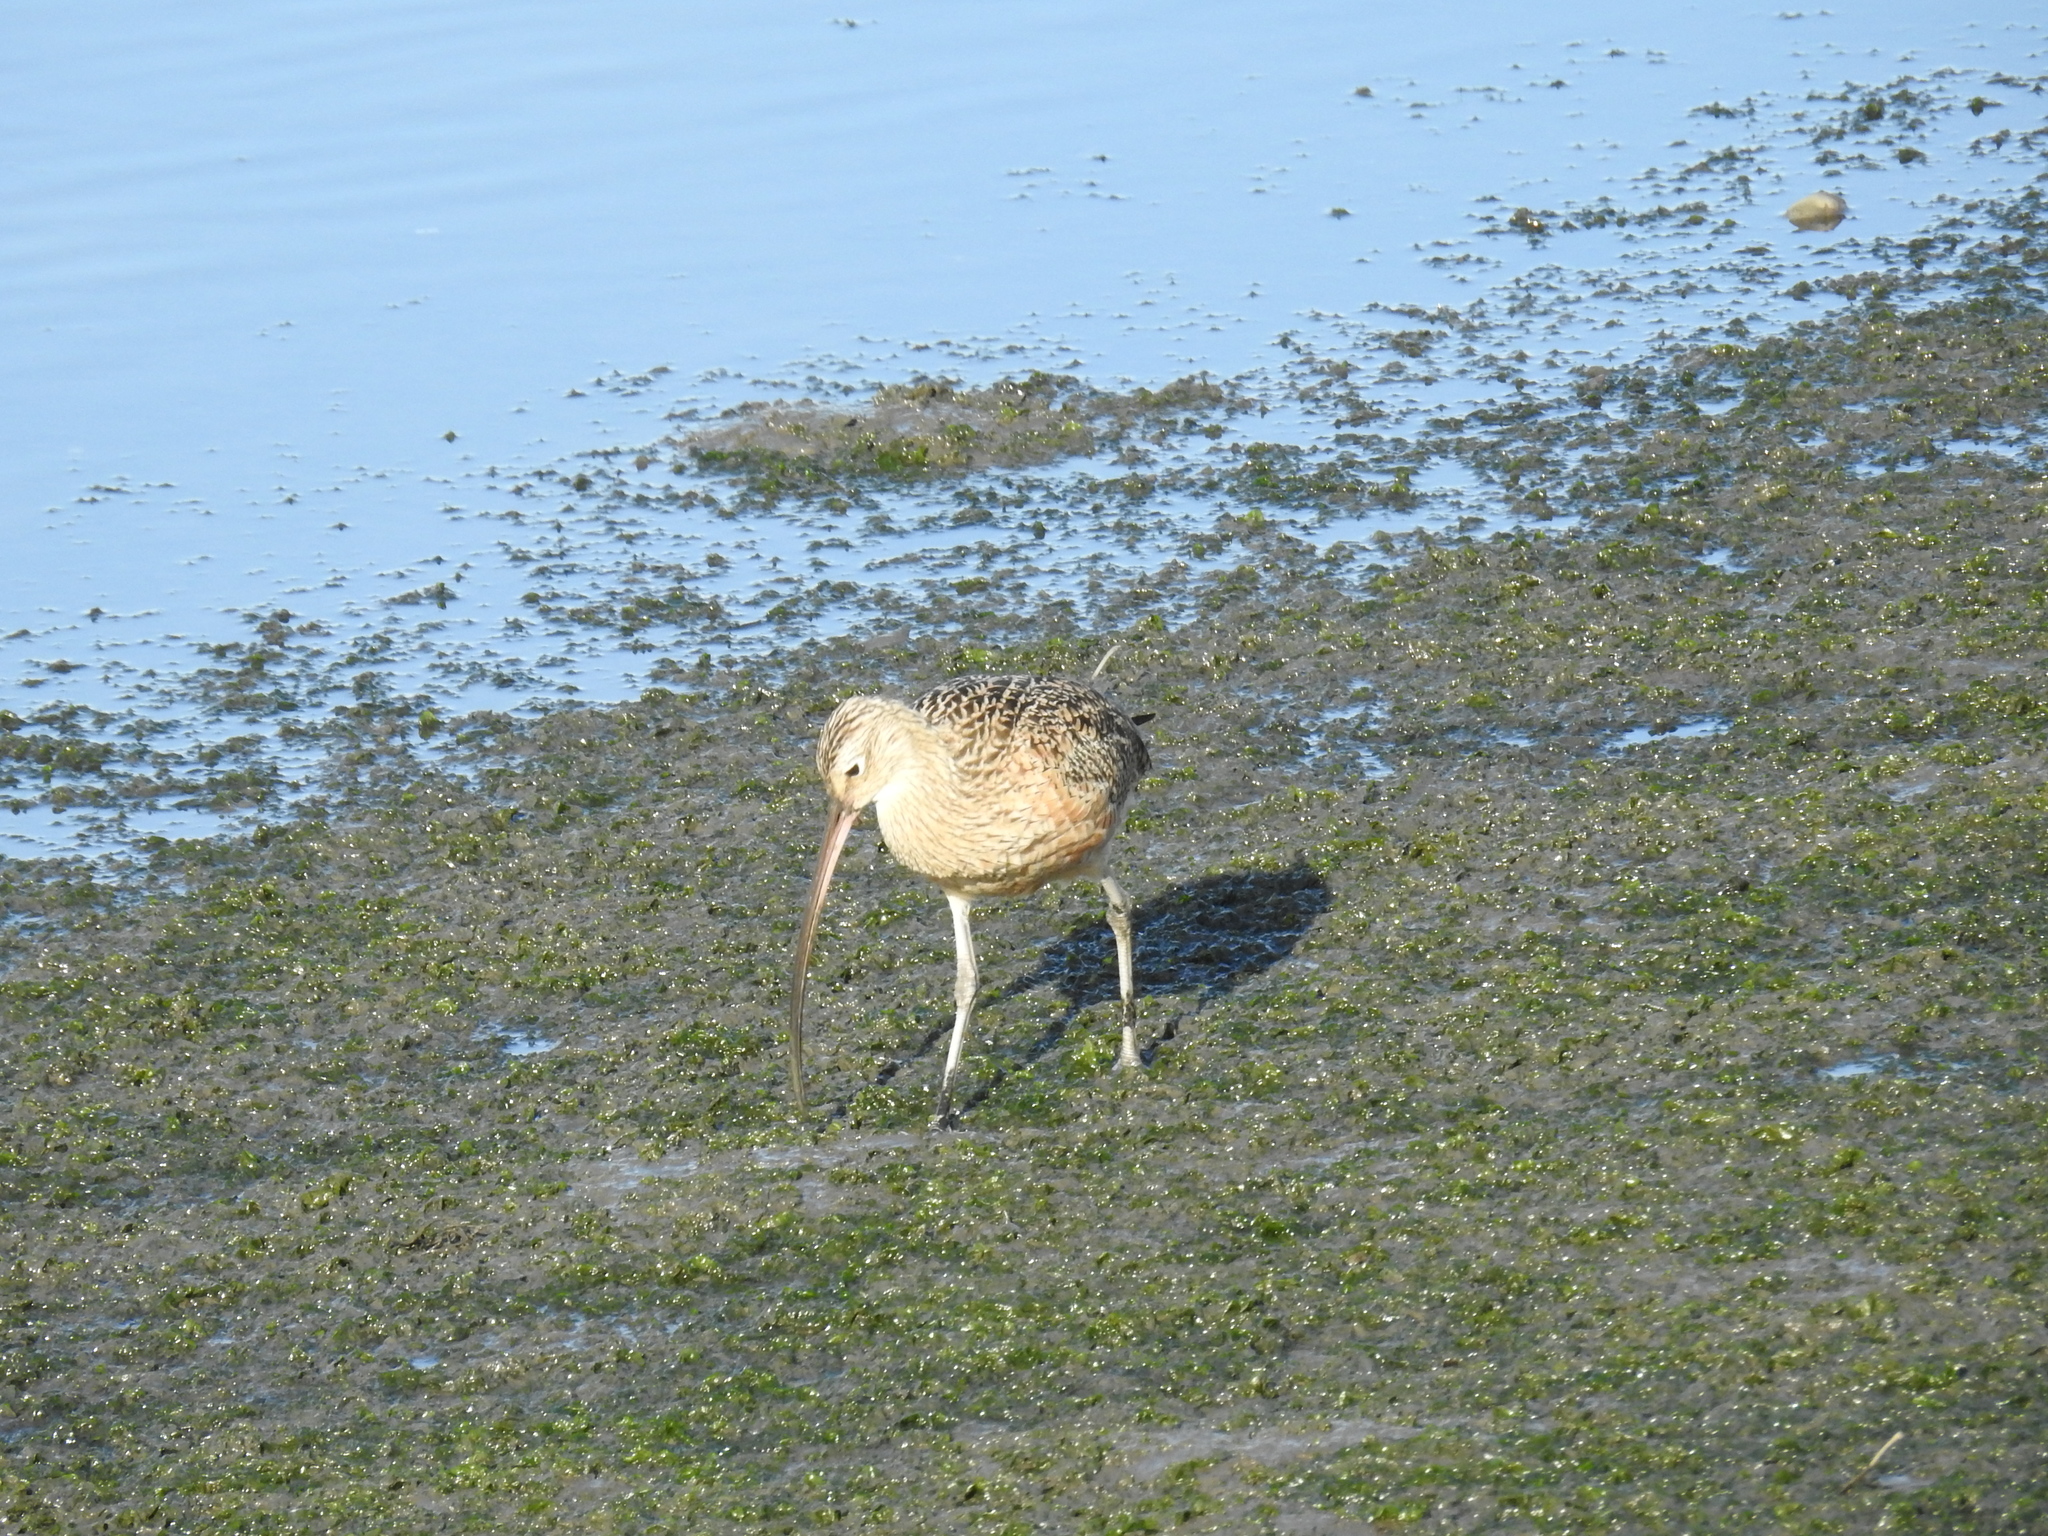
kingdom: Animalia
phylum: Chordata
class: Aves
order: Charadriiformes
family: Scolopacidae
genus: Numenius
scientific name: Numenius americanus
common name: Long-billed curlew
